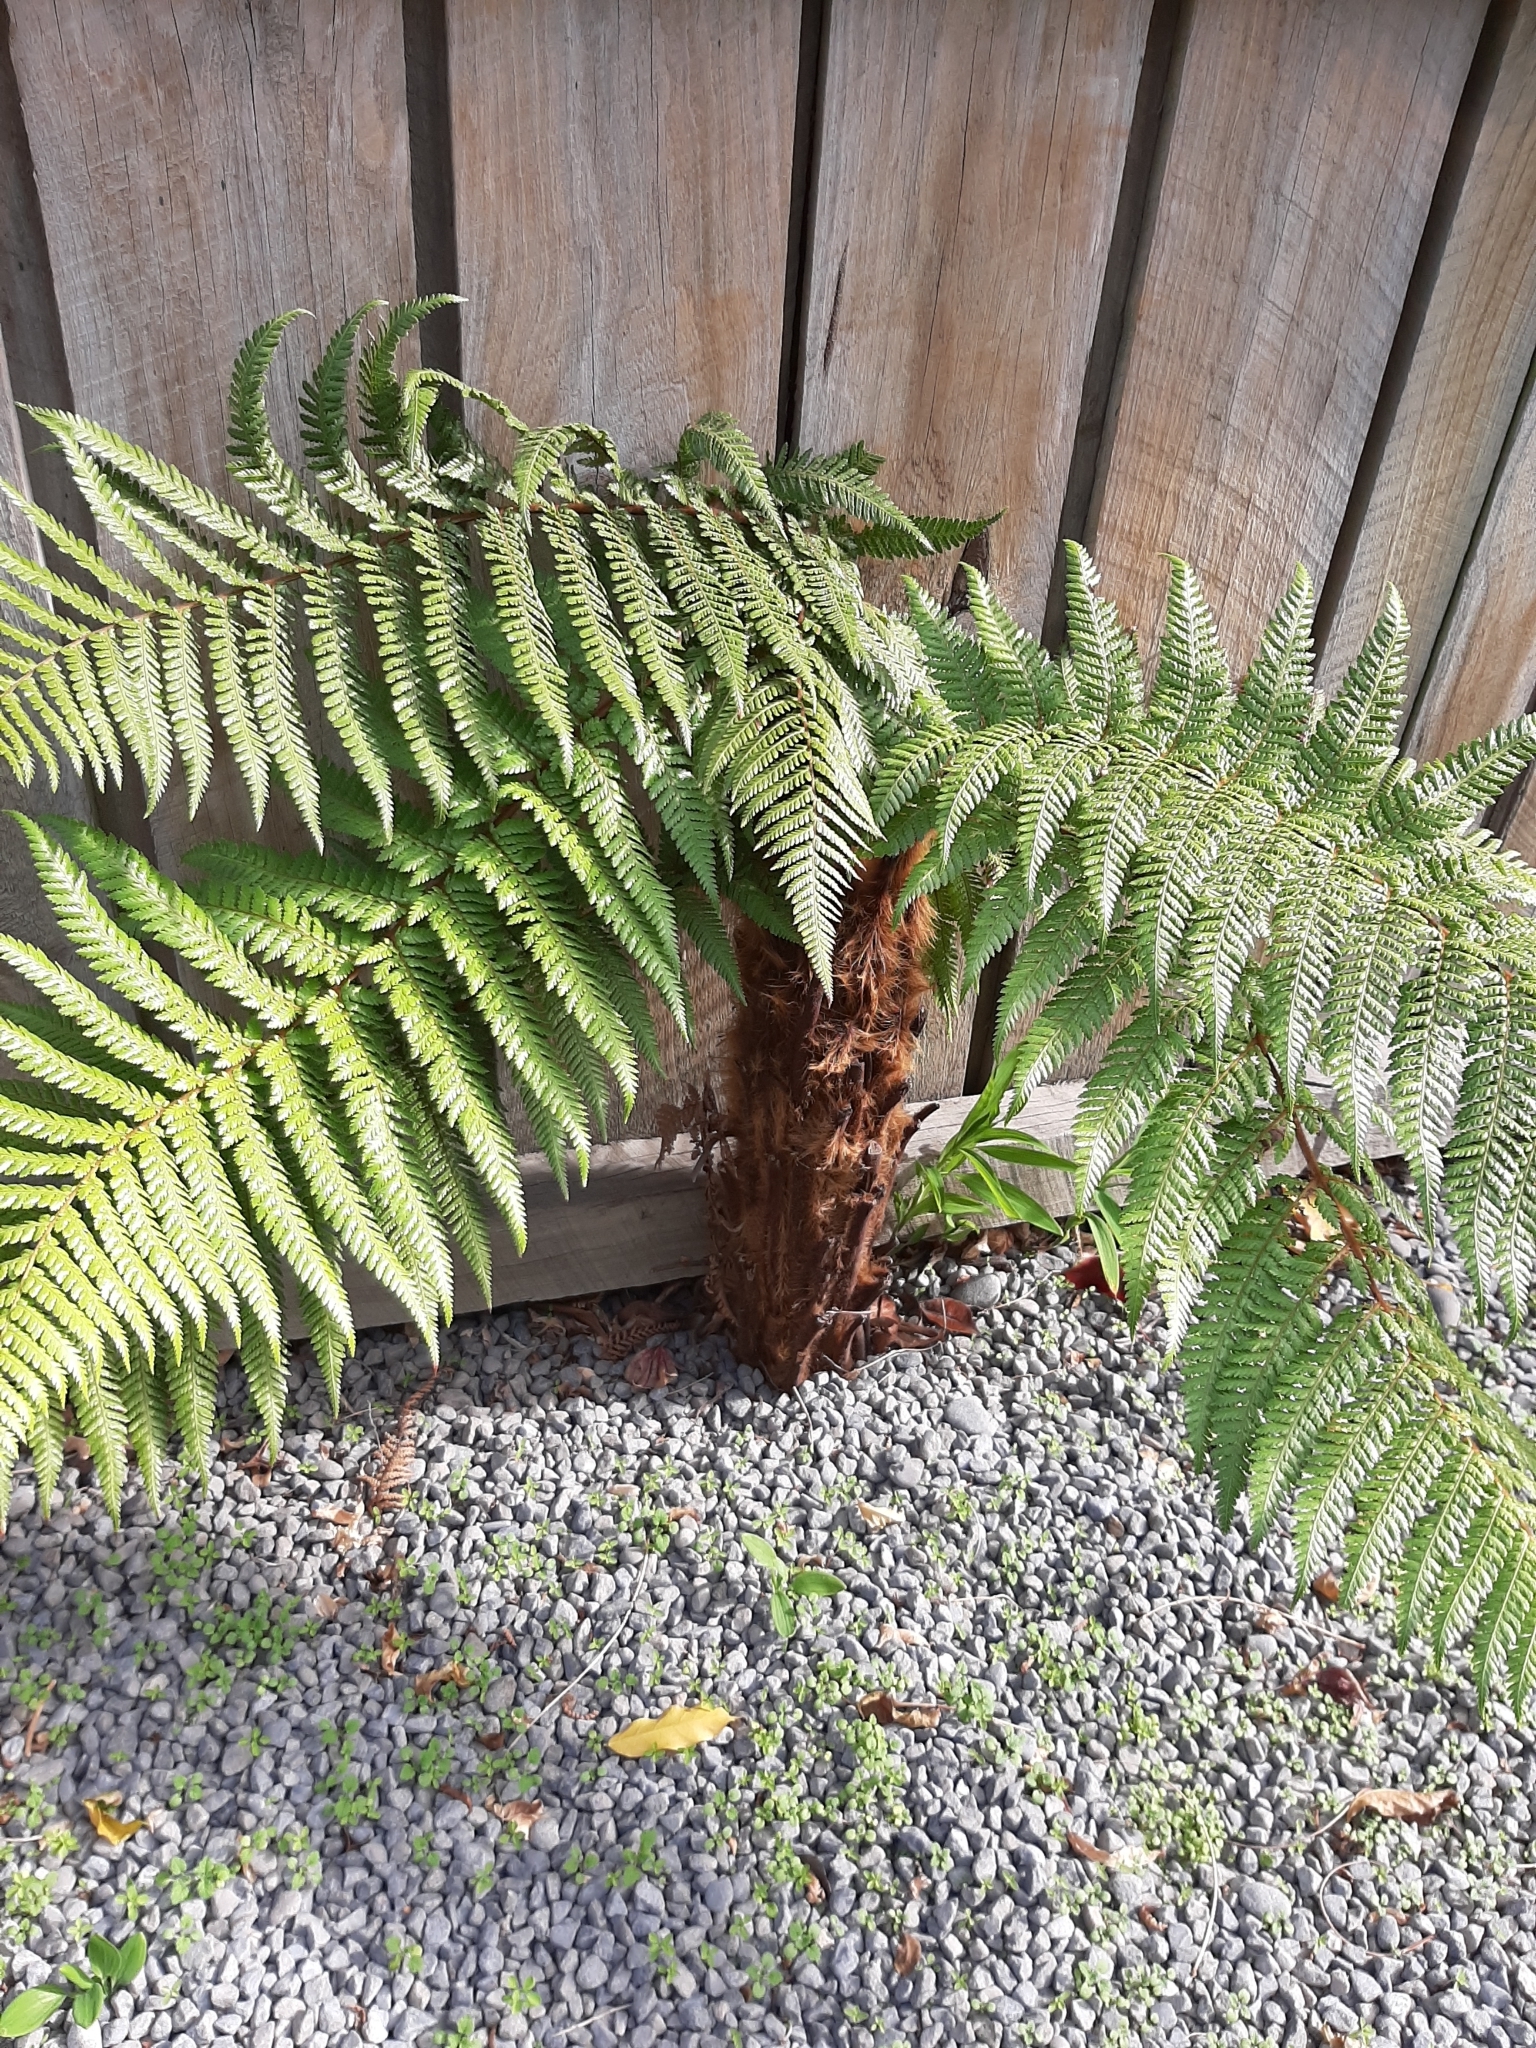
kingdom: Plantae
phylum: Tracheophyta
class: Polypodiopsida
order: Cyatheales
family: Dicksoniaceae
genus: Dicksonia
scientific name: Dicksonia squarrosa
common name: Hard treefern
